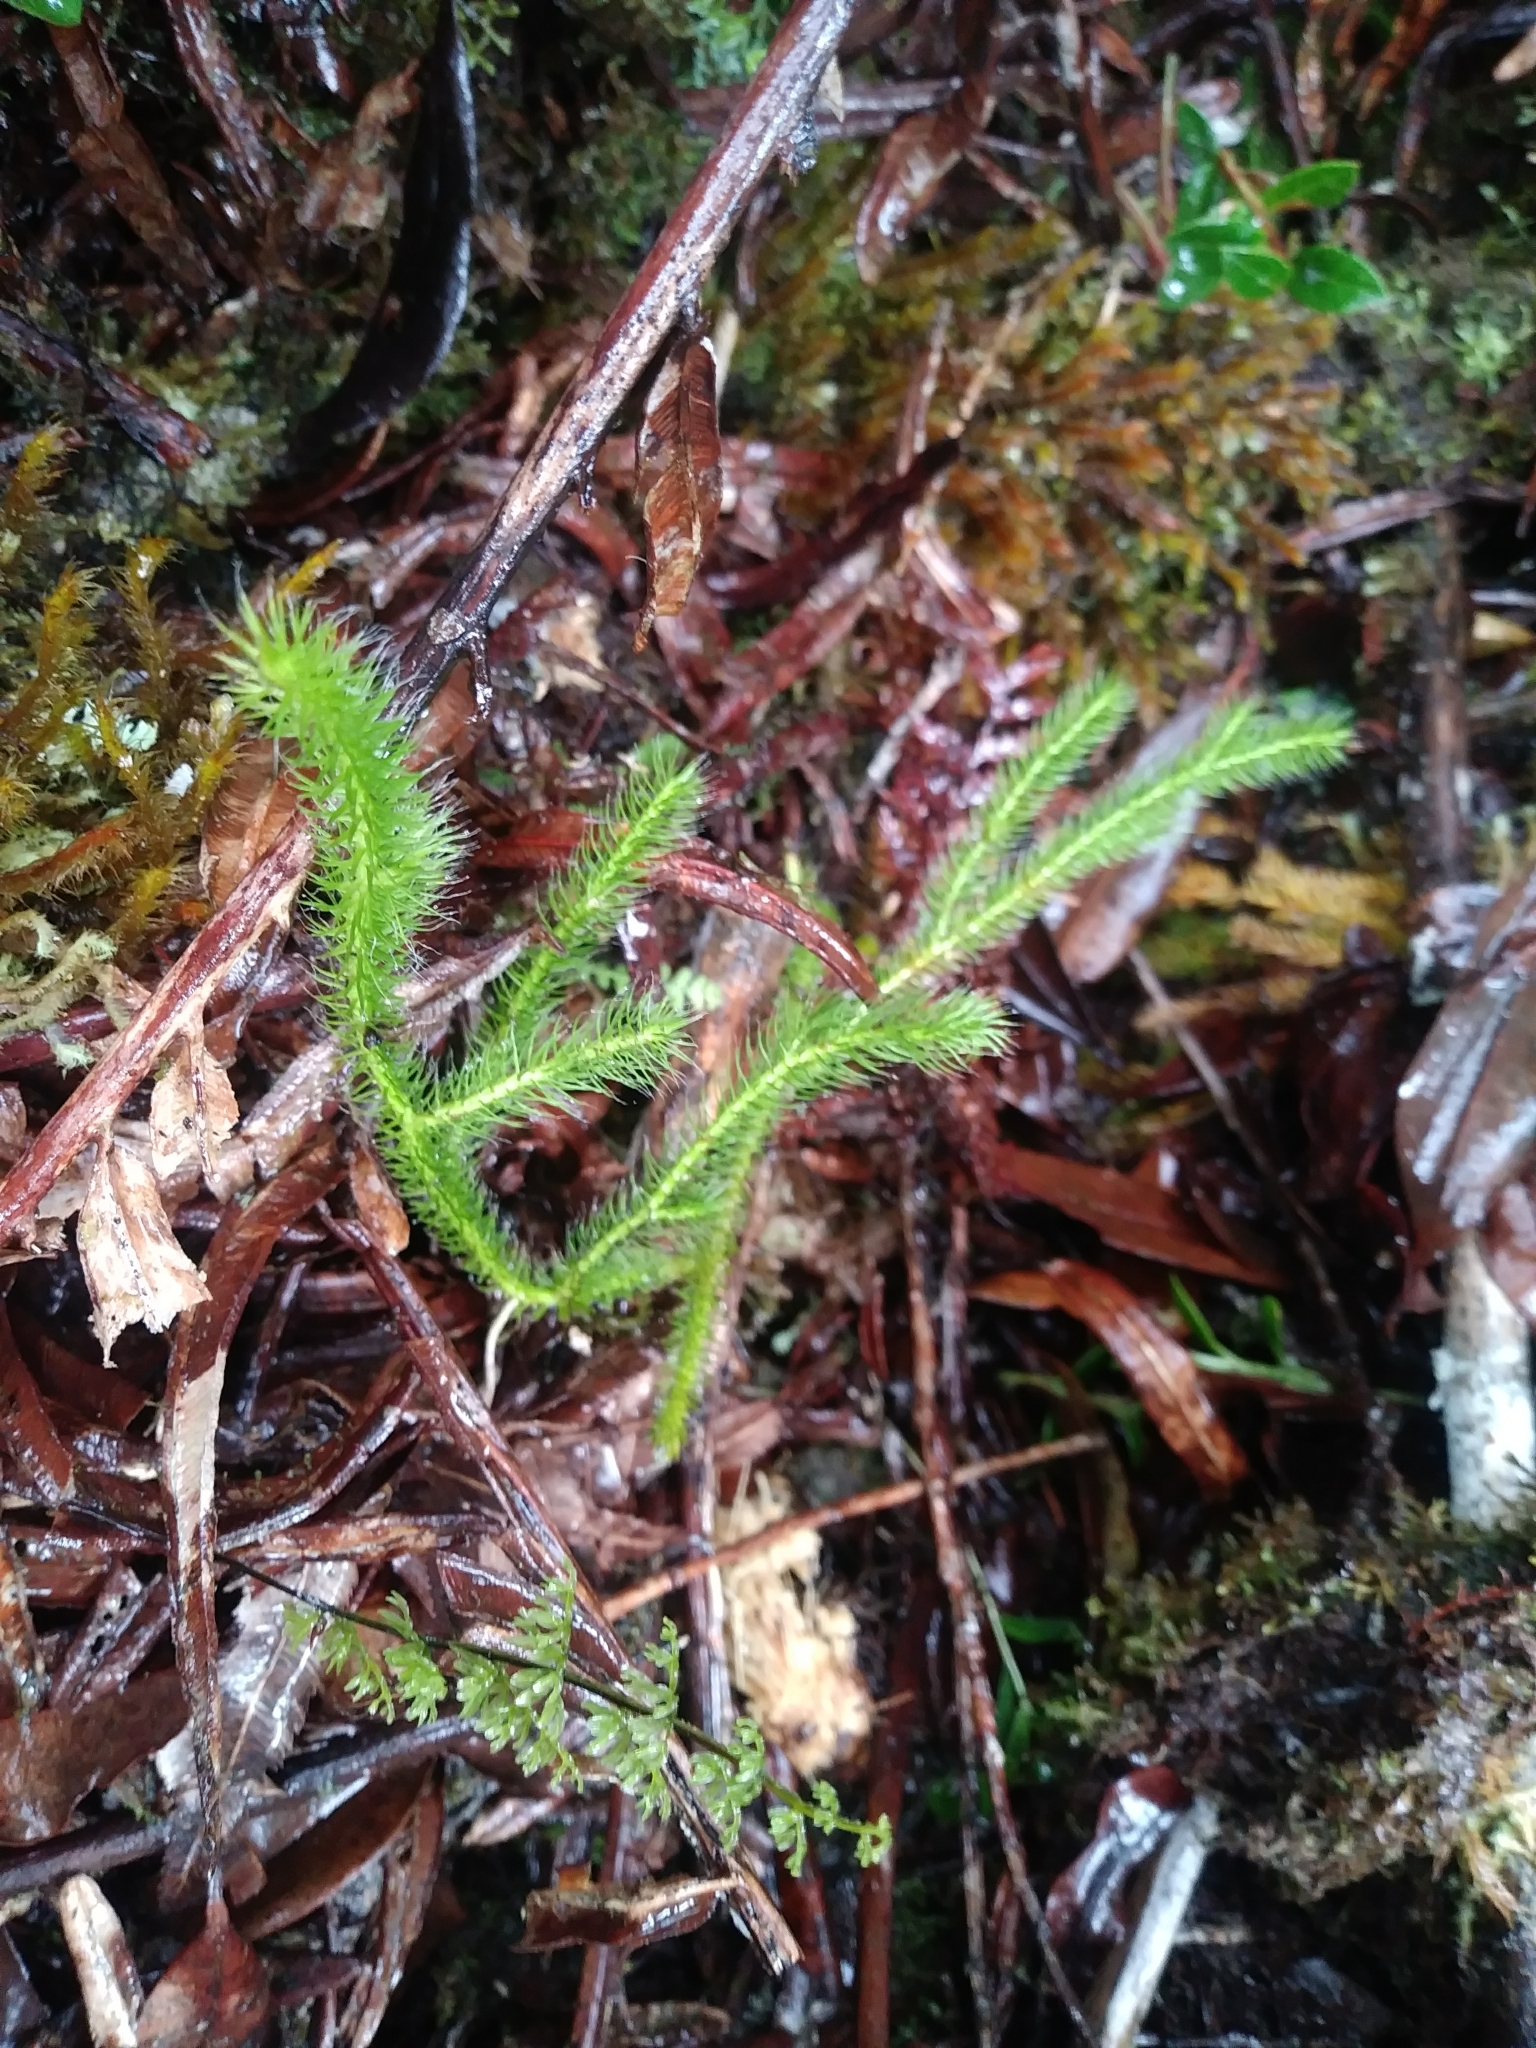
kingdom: Plantae
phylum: Tracheophyta
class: Lycopodiopsida
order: Lycopodiales
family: Lycopodiaceae
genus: Lycopodium
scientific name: Lycopodium clavatum
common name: Stag's-horn clubmoss
